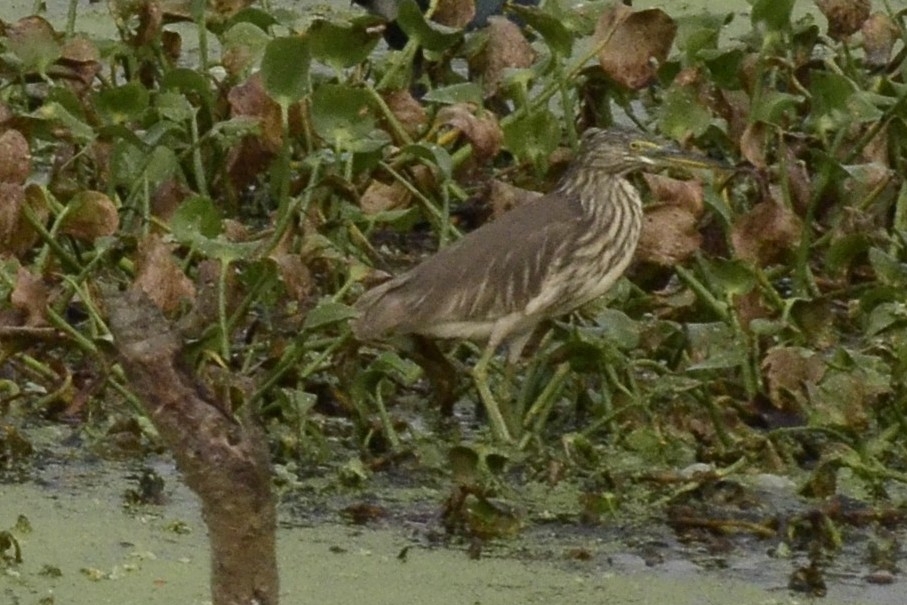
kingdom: Animalia
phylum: Chordata
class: Aves
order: Pelecaniformes
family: Ardeidae
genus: Ardeola
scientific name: Ardeola grayii
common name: Indian pond heron
